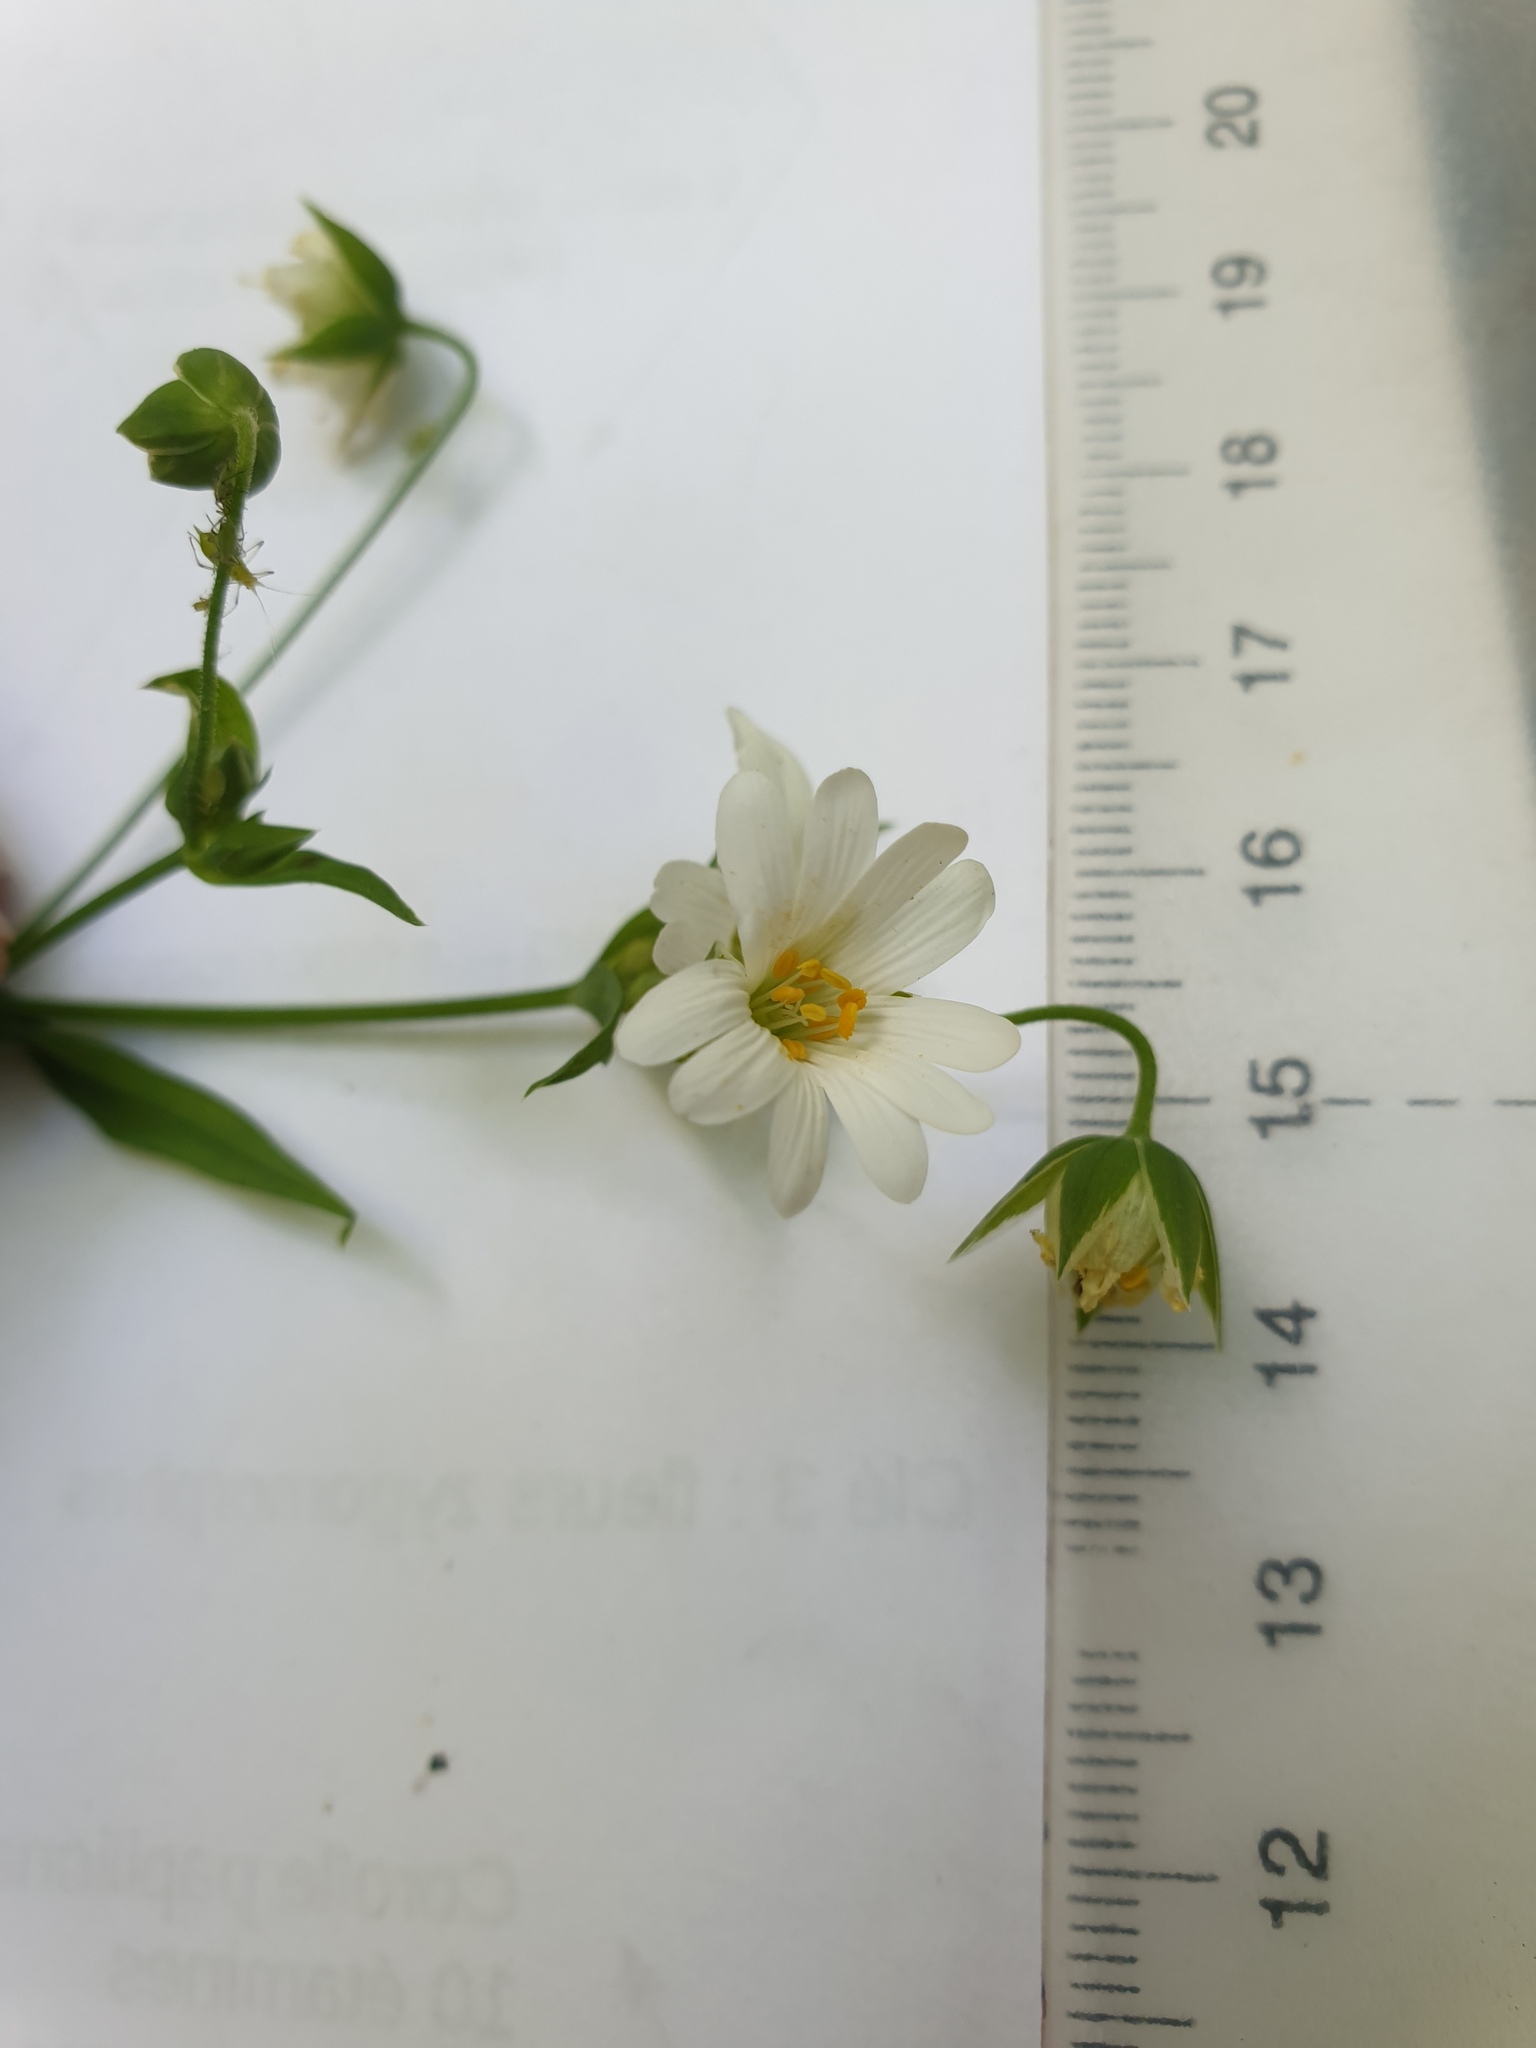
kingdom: Plantae
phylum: Tracheophyta
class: Magnoliopsida
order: Caryophyllales
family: Caryophyllaceae
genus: Rabelera
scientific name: Rabelera holostea
